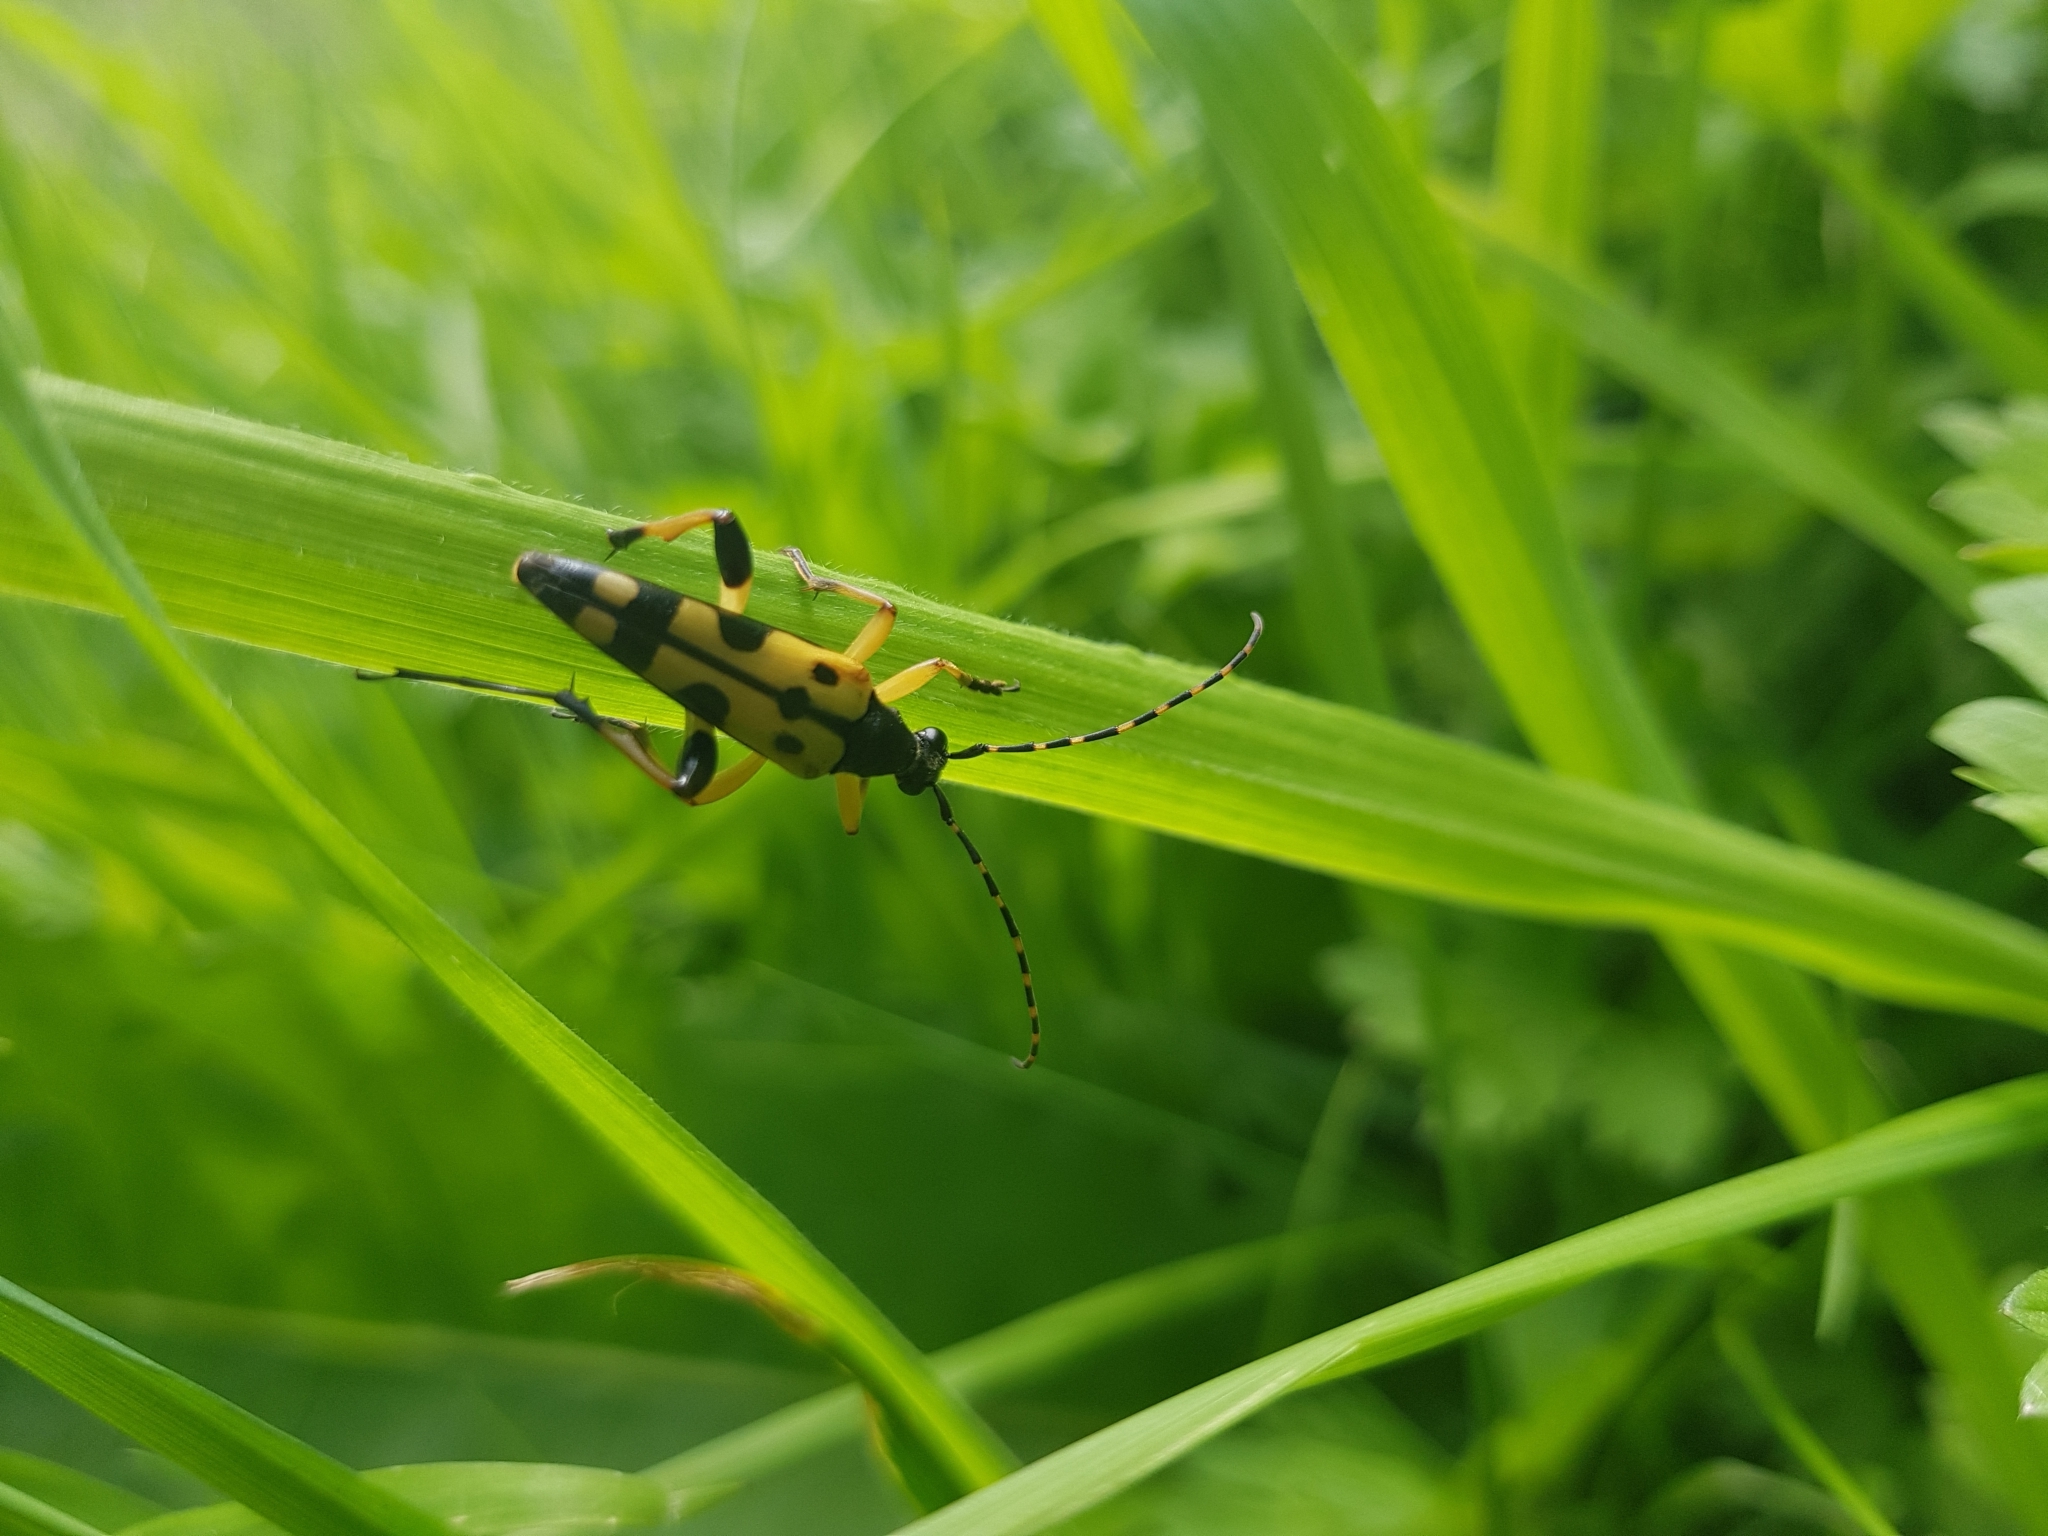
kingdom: Animalia
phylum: Arthropoda
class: Insecta
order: Coleoptera
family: Cerambycidae
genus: Rutpela
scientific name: Rutpela maculata
